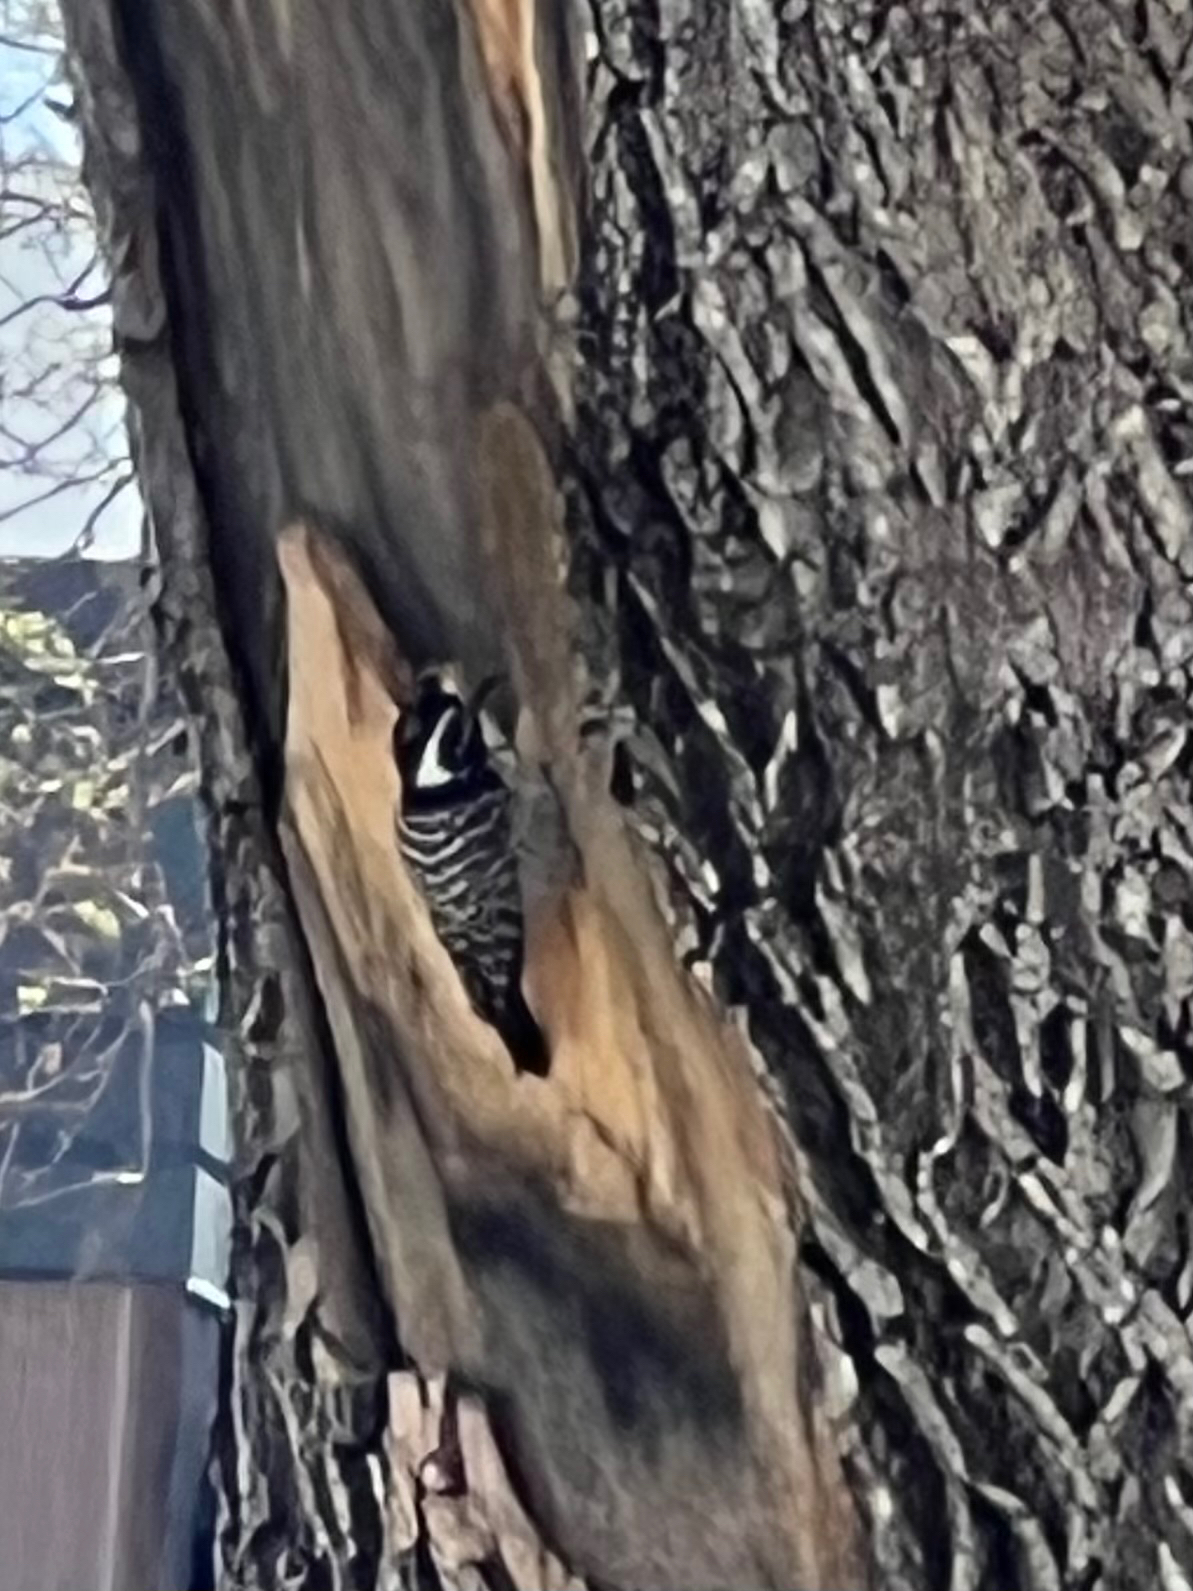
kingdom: Animalia
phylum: Chordata
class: Aves
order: Piciformes
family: Picidae
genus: Dryobates
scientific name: Dryobates nuttallii
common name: Nuttall's woodpecker
